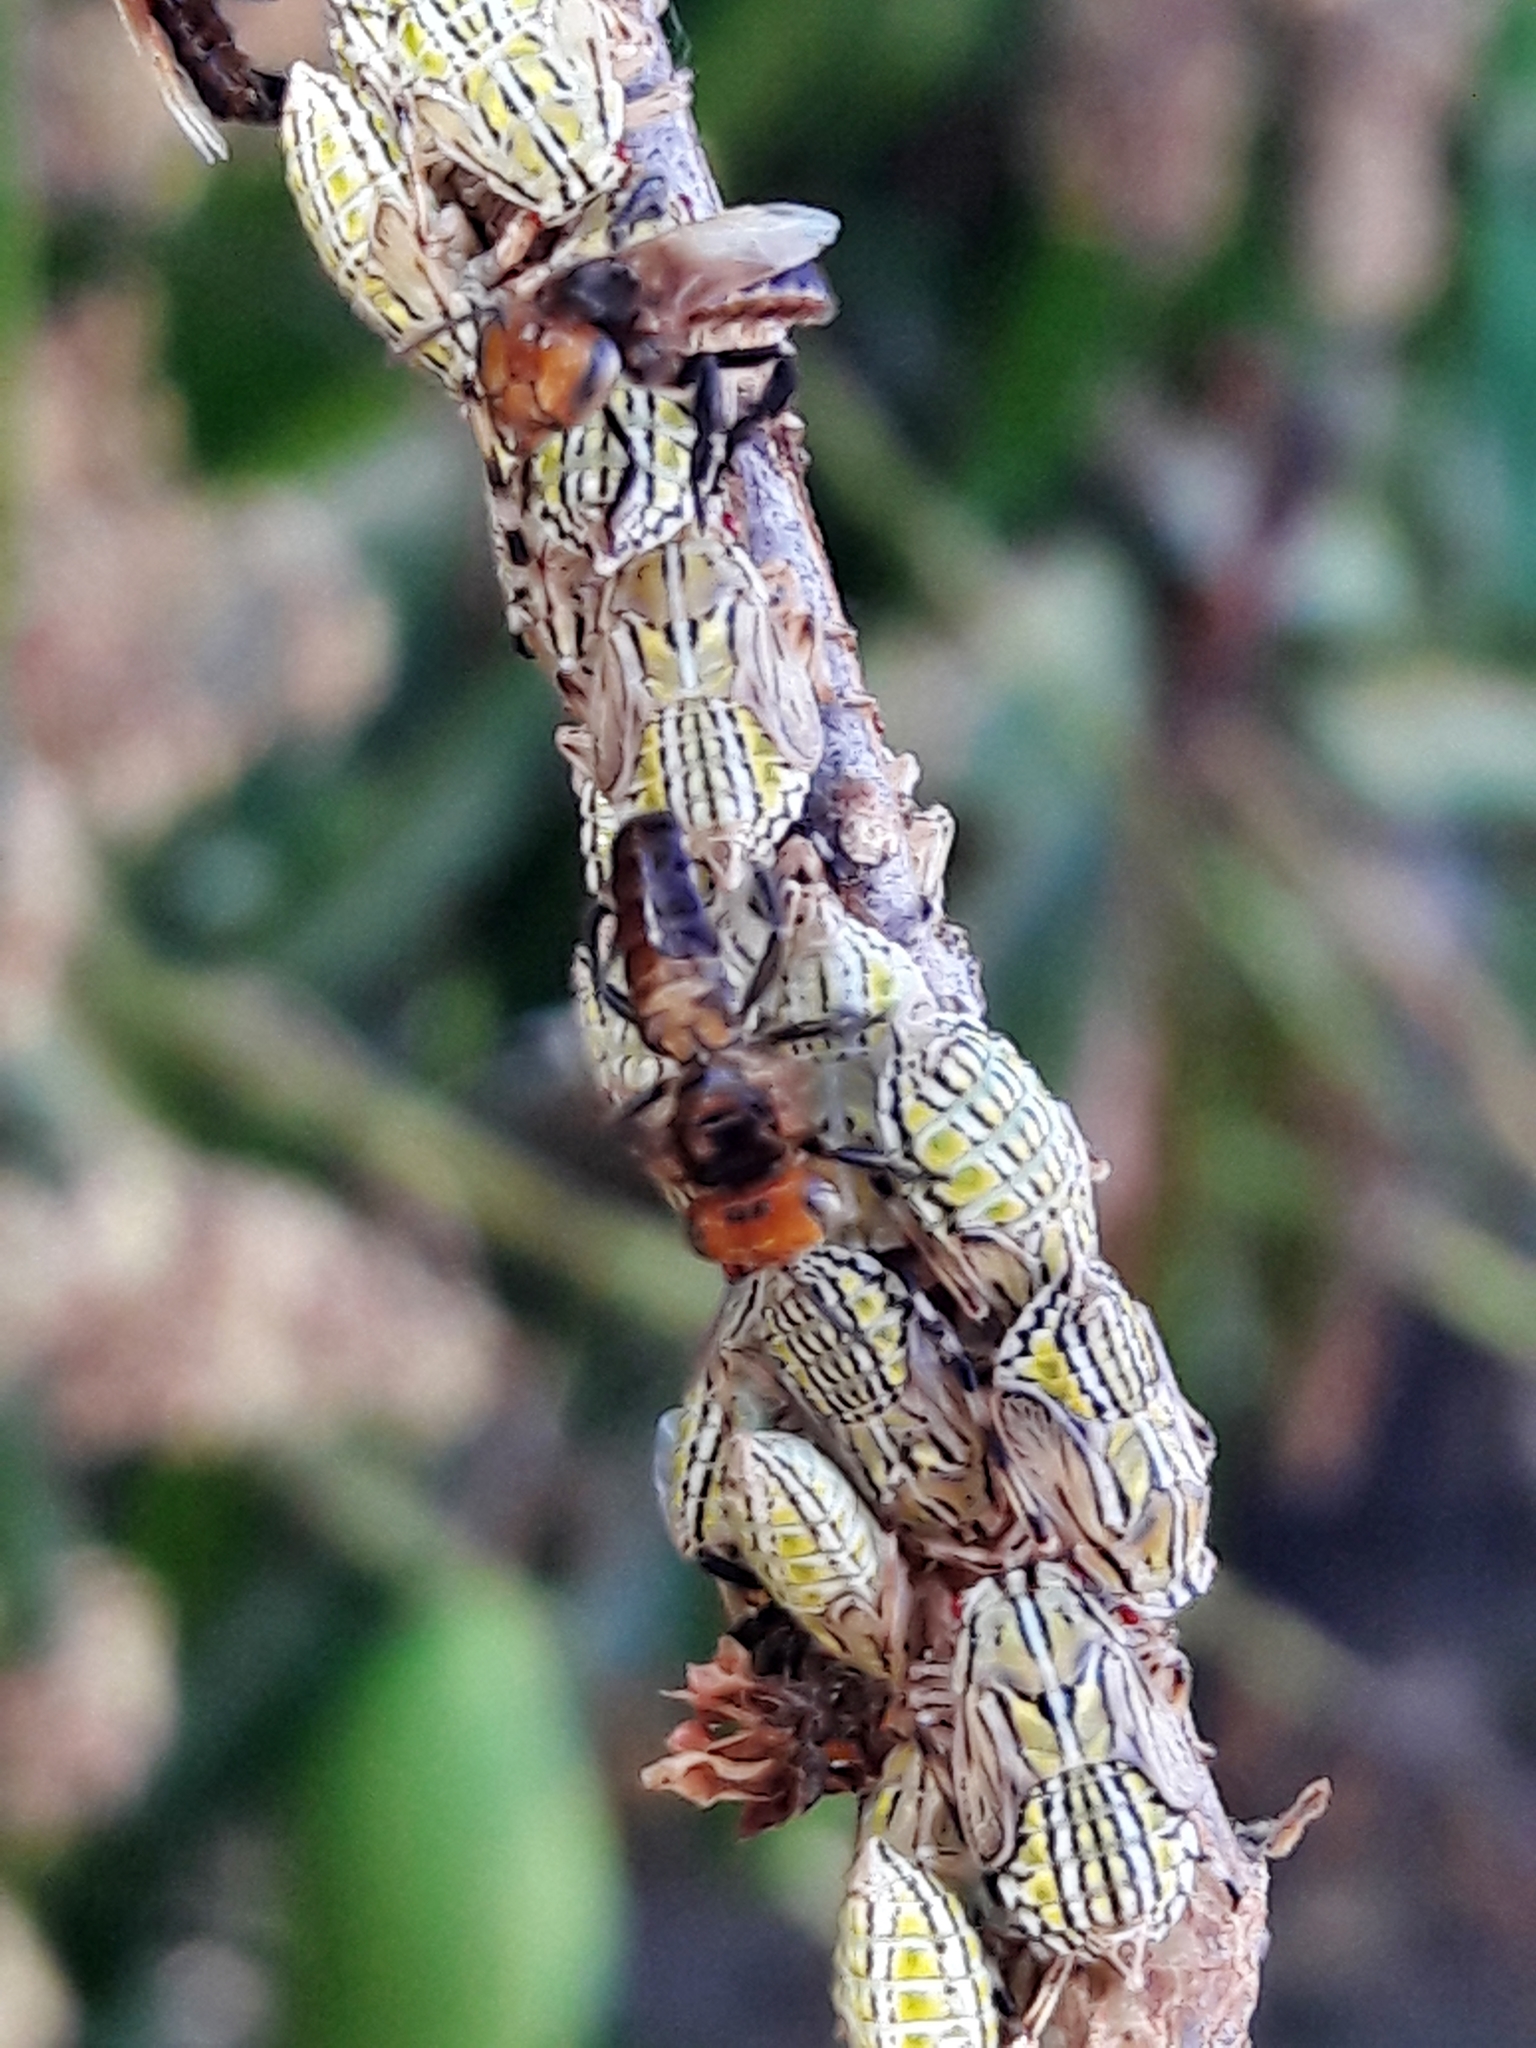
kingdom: Animalia
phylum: Arthropoda
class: Insecta
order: Hemiptera
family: Aetalionidae
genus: Aetalion
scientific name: Aetalion reticulatum
